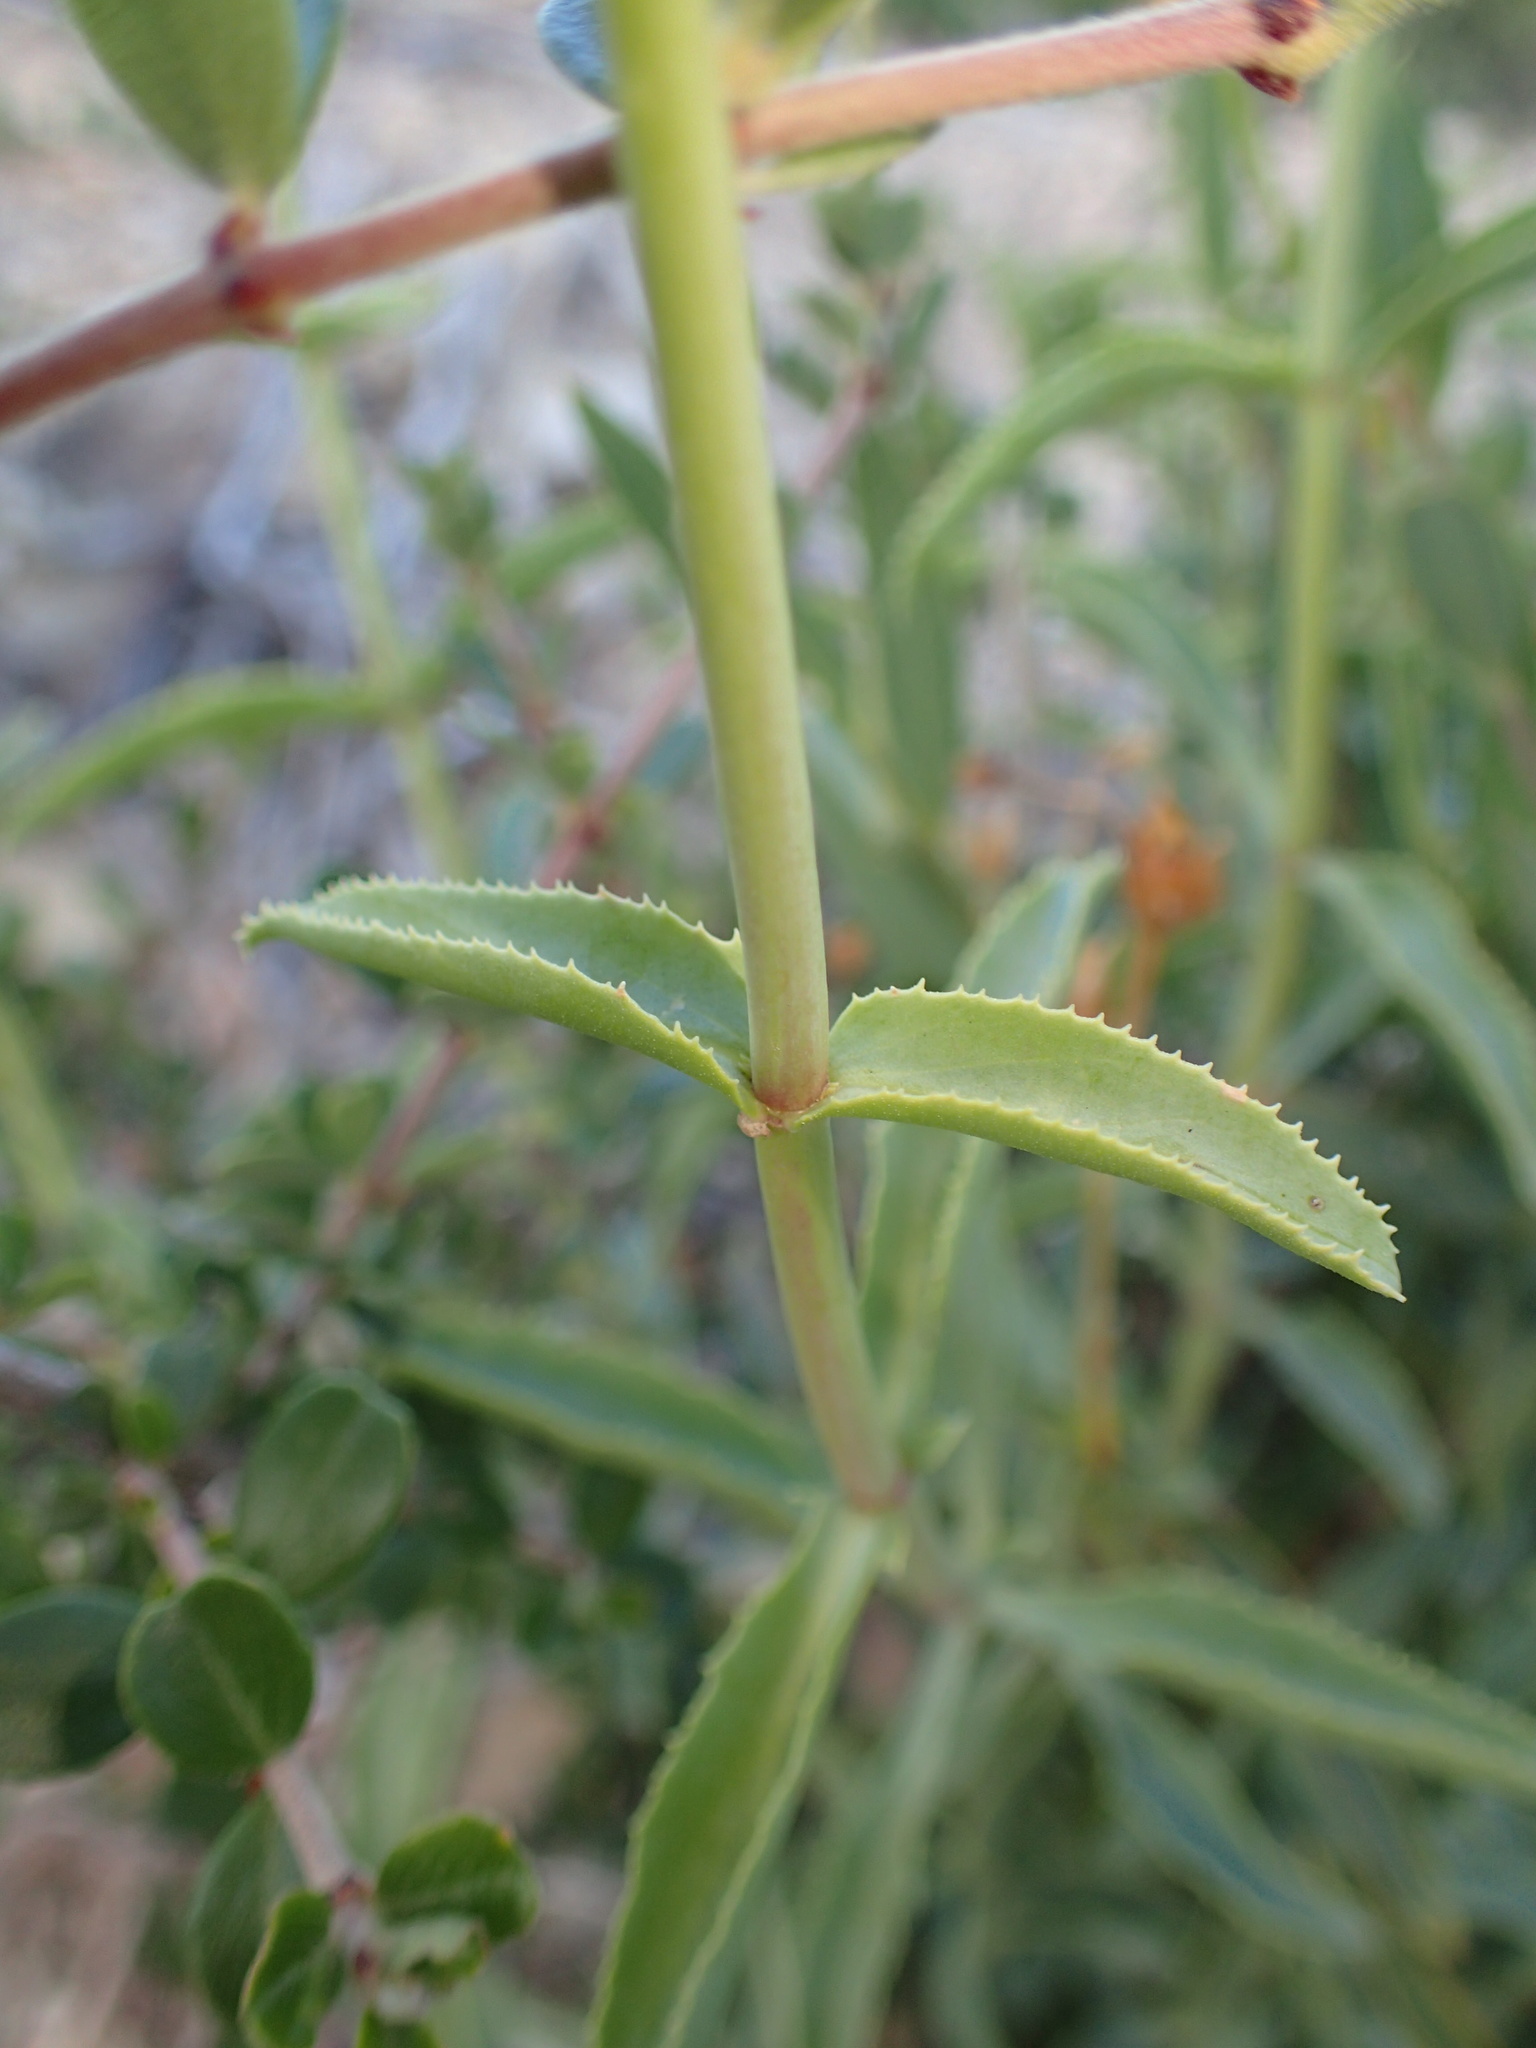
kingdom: Plantae
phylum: Tracheophyta
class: Magnoliopsida
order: Lamiales
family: Plantaginaceae
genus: Penstemon
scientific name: Penstemon grinnellii
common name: Grinnell's beardtongue
